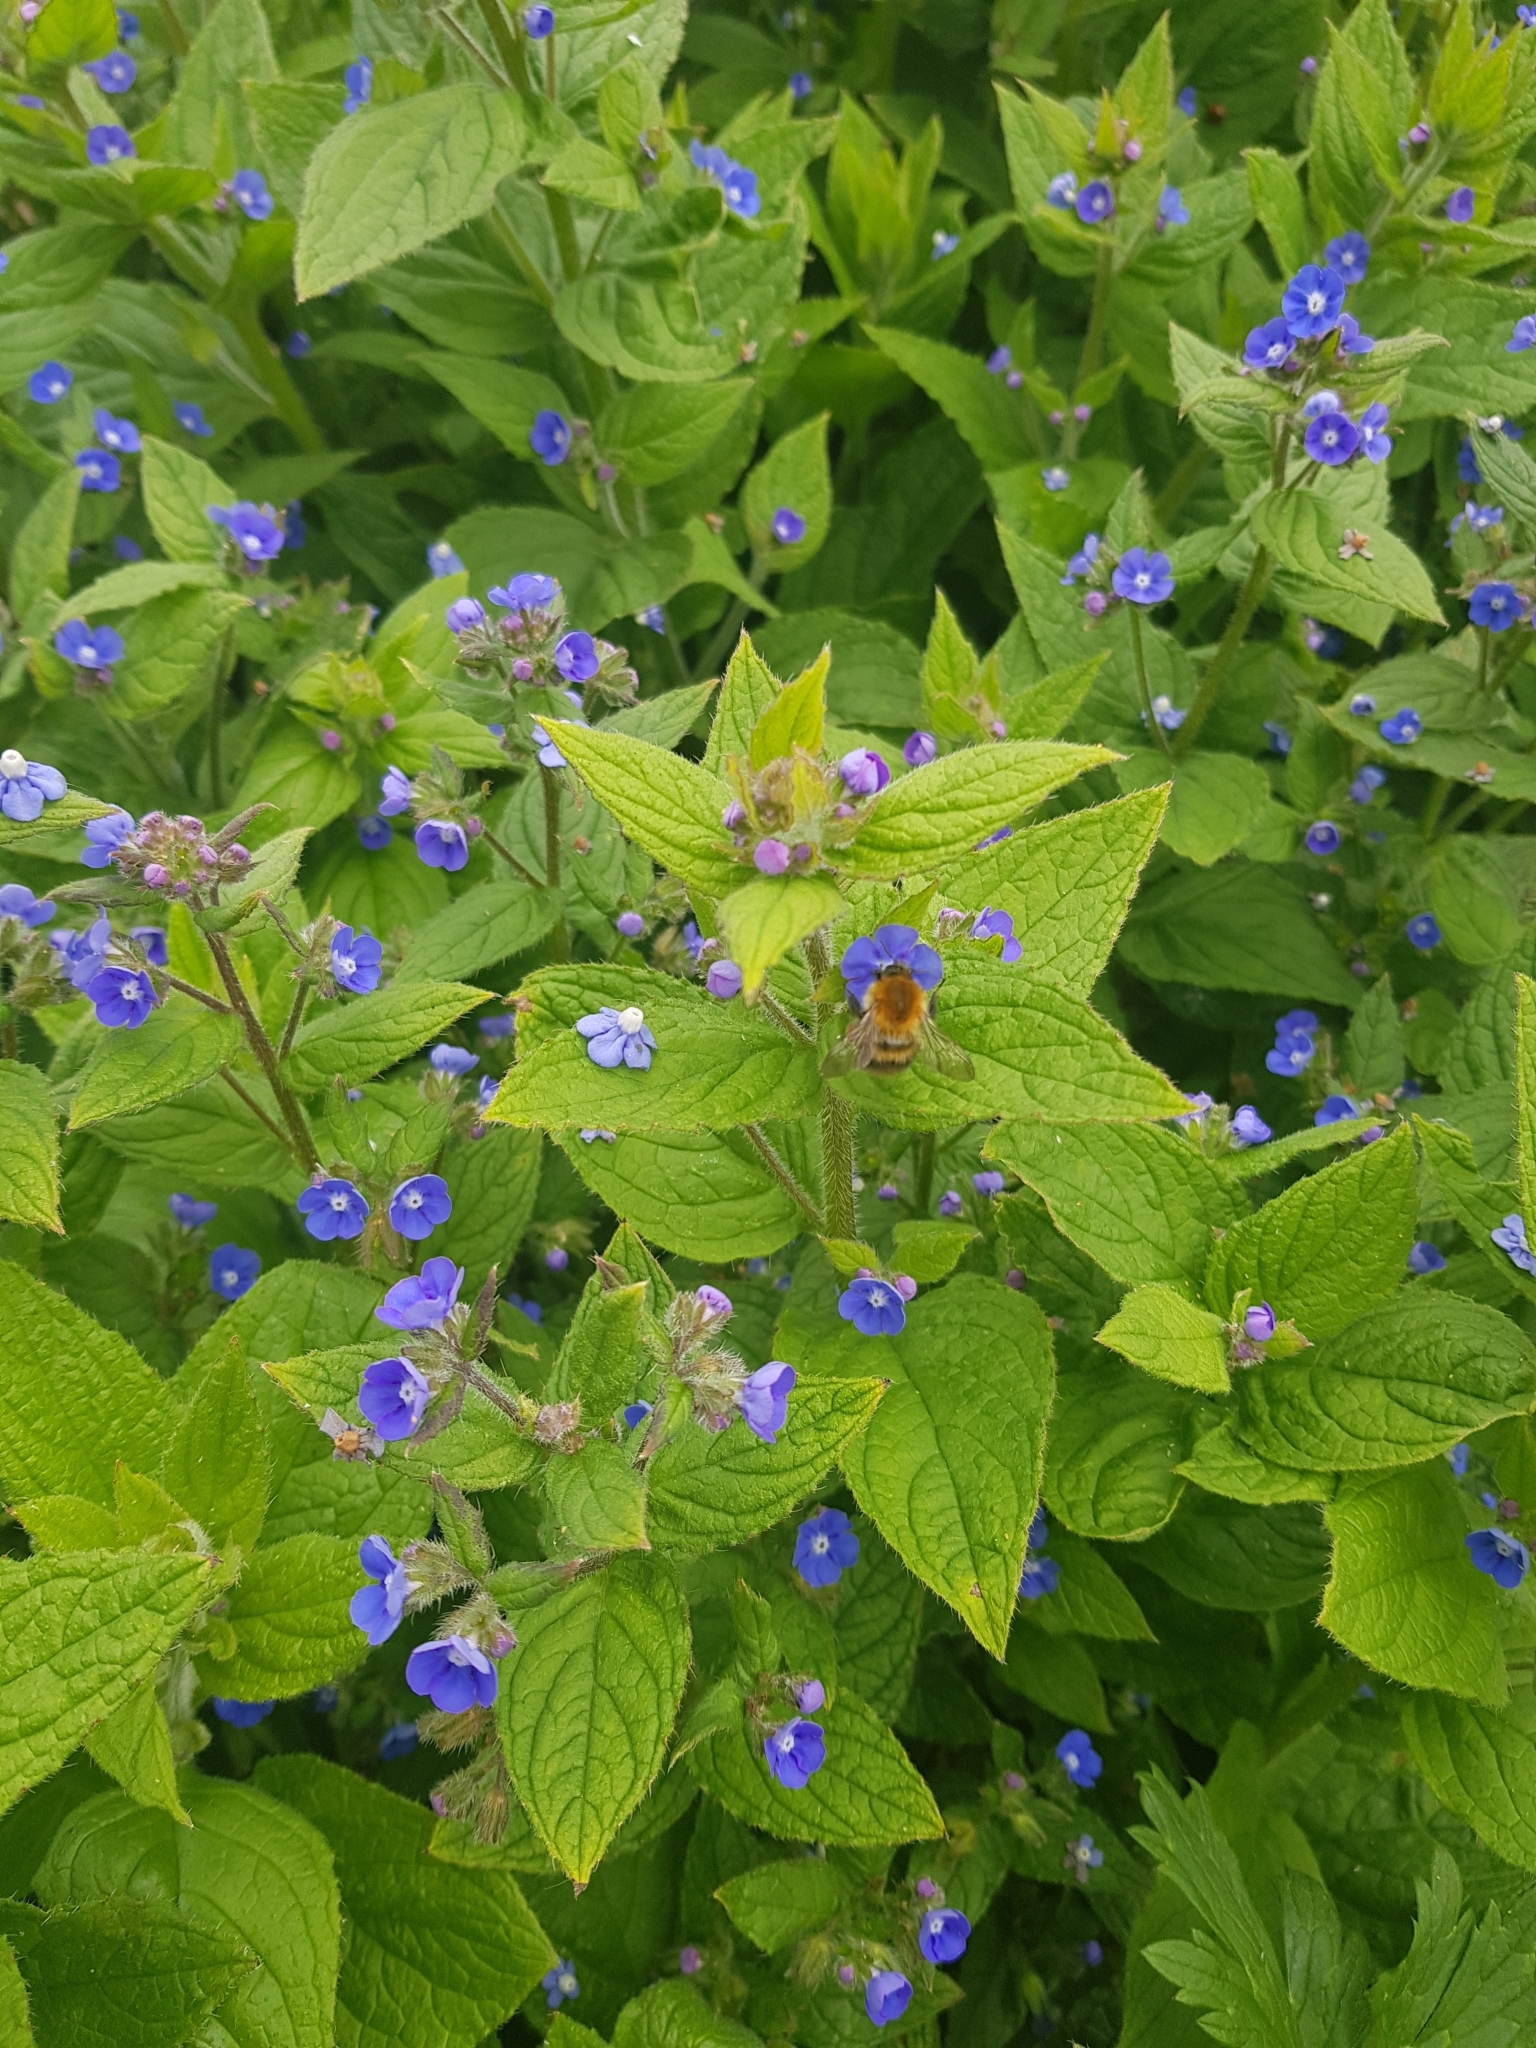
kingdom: Animalia
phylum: Arthropoda
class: Insecta
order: Hymenoptera
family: Apidae
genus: Bombus
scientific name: Bombus pascuorum
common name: Common carder bee
